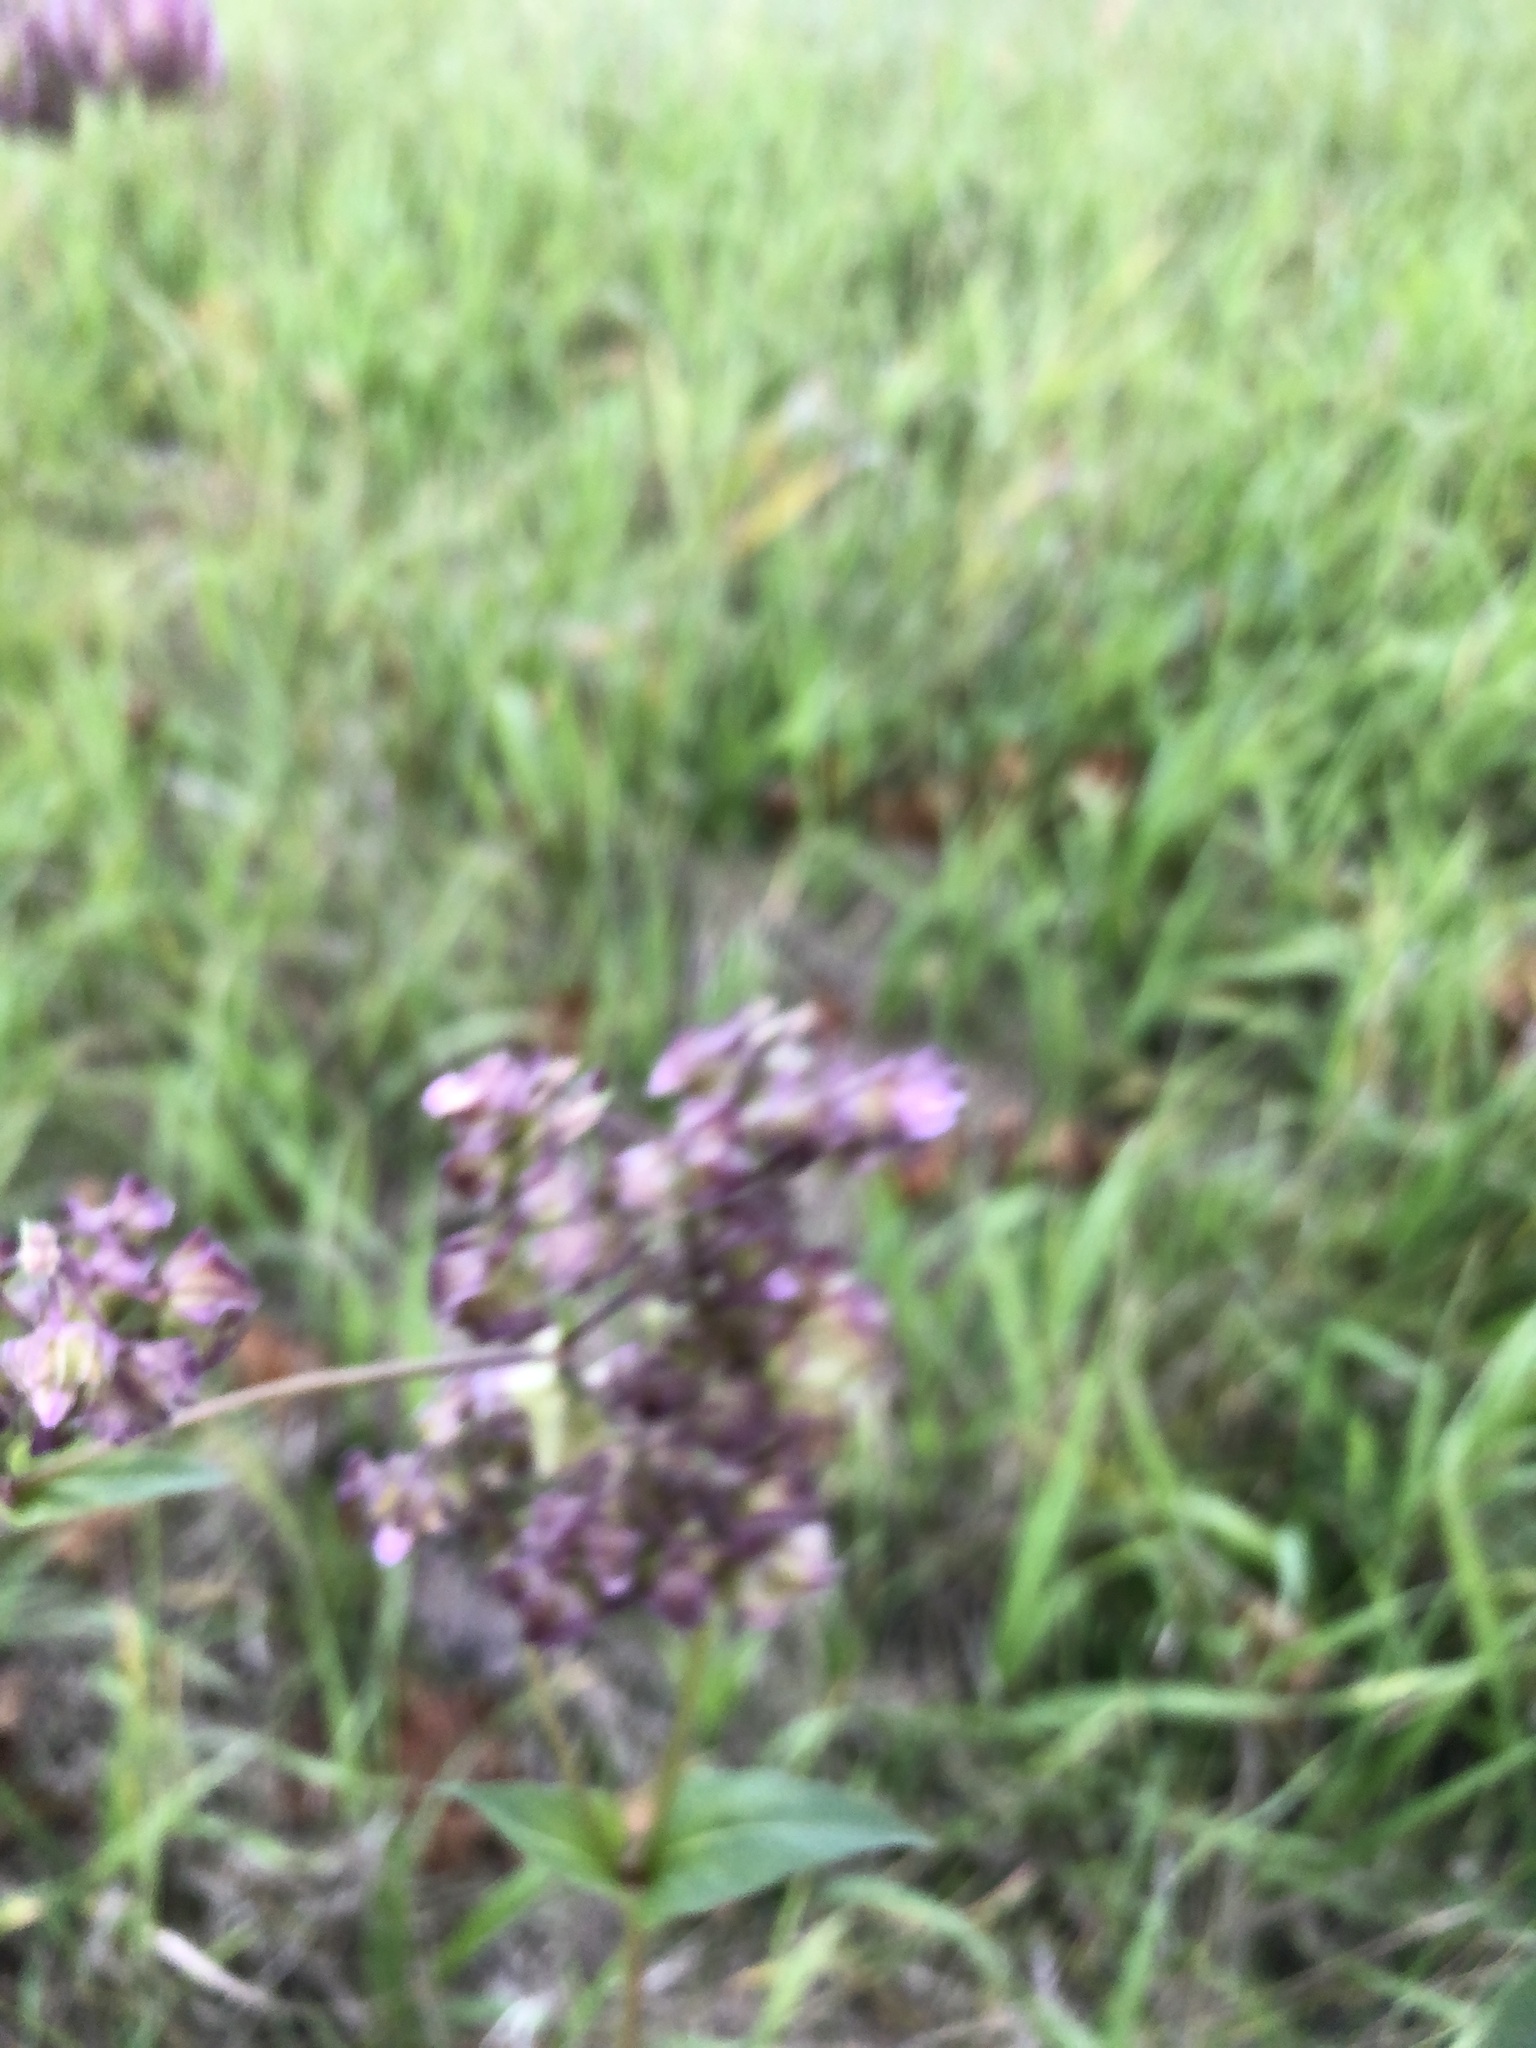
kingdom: Plantae
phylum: Tracheophyta
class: Magnoliopsida
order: Caryophyllales
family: Nyctaginaceae
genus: Mirabilis
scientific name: Mirabilis nyctaginea
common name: Umbrella wort
